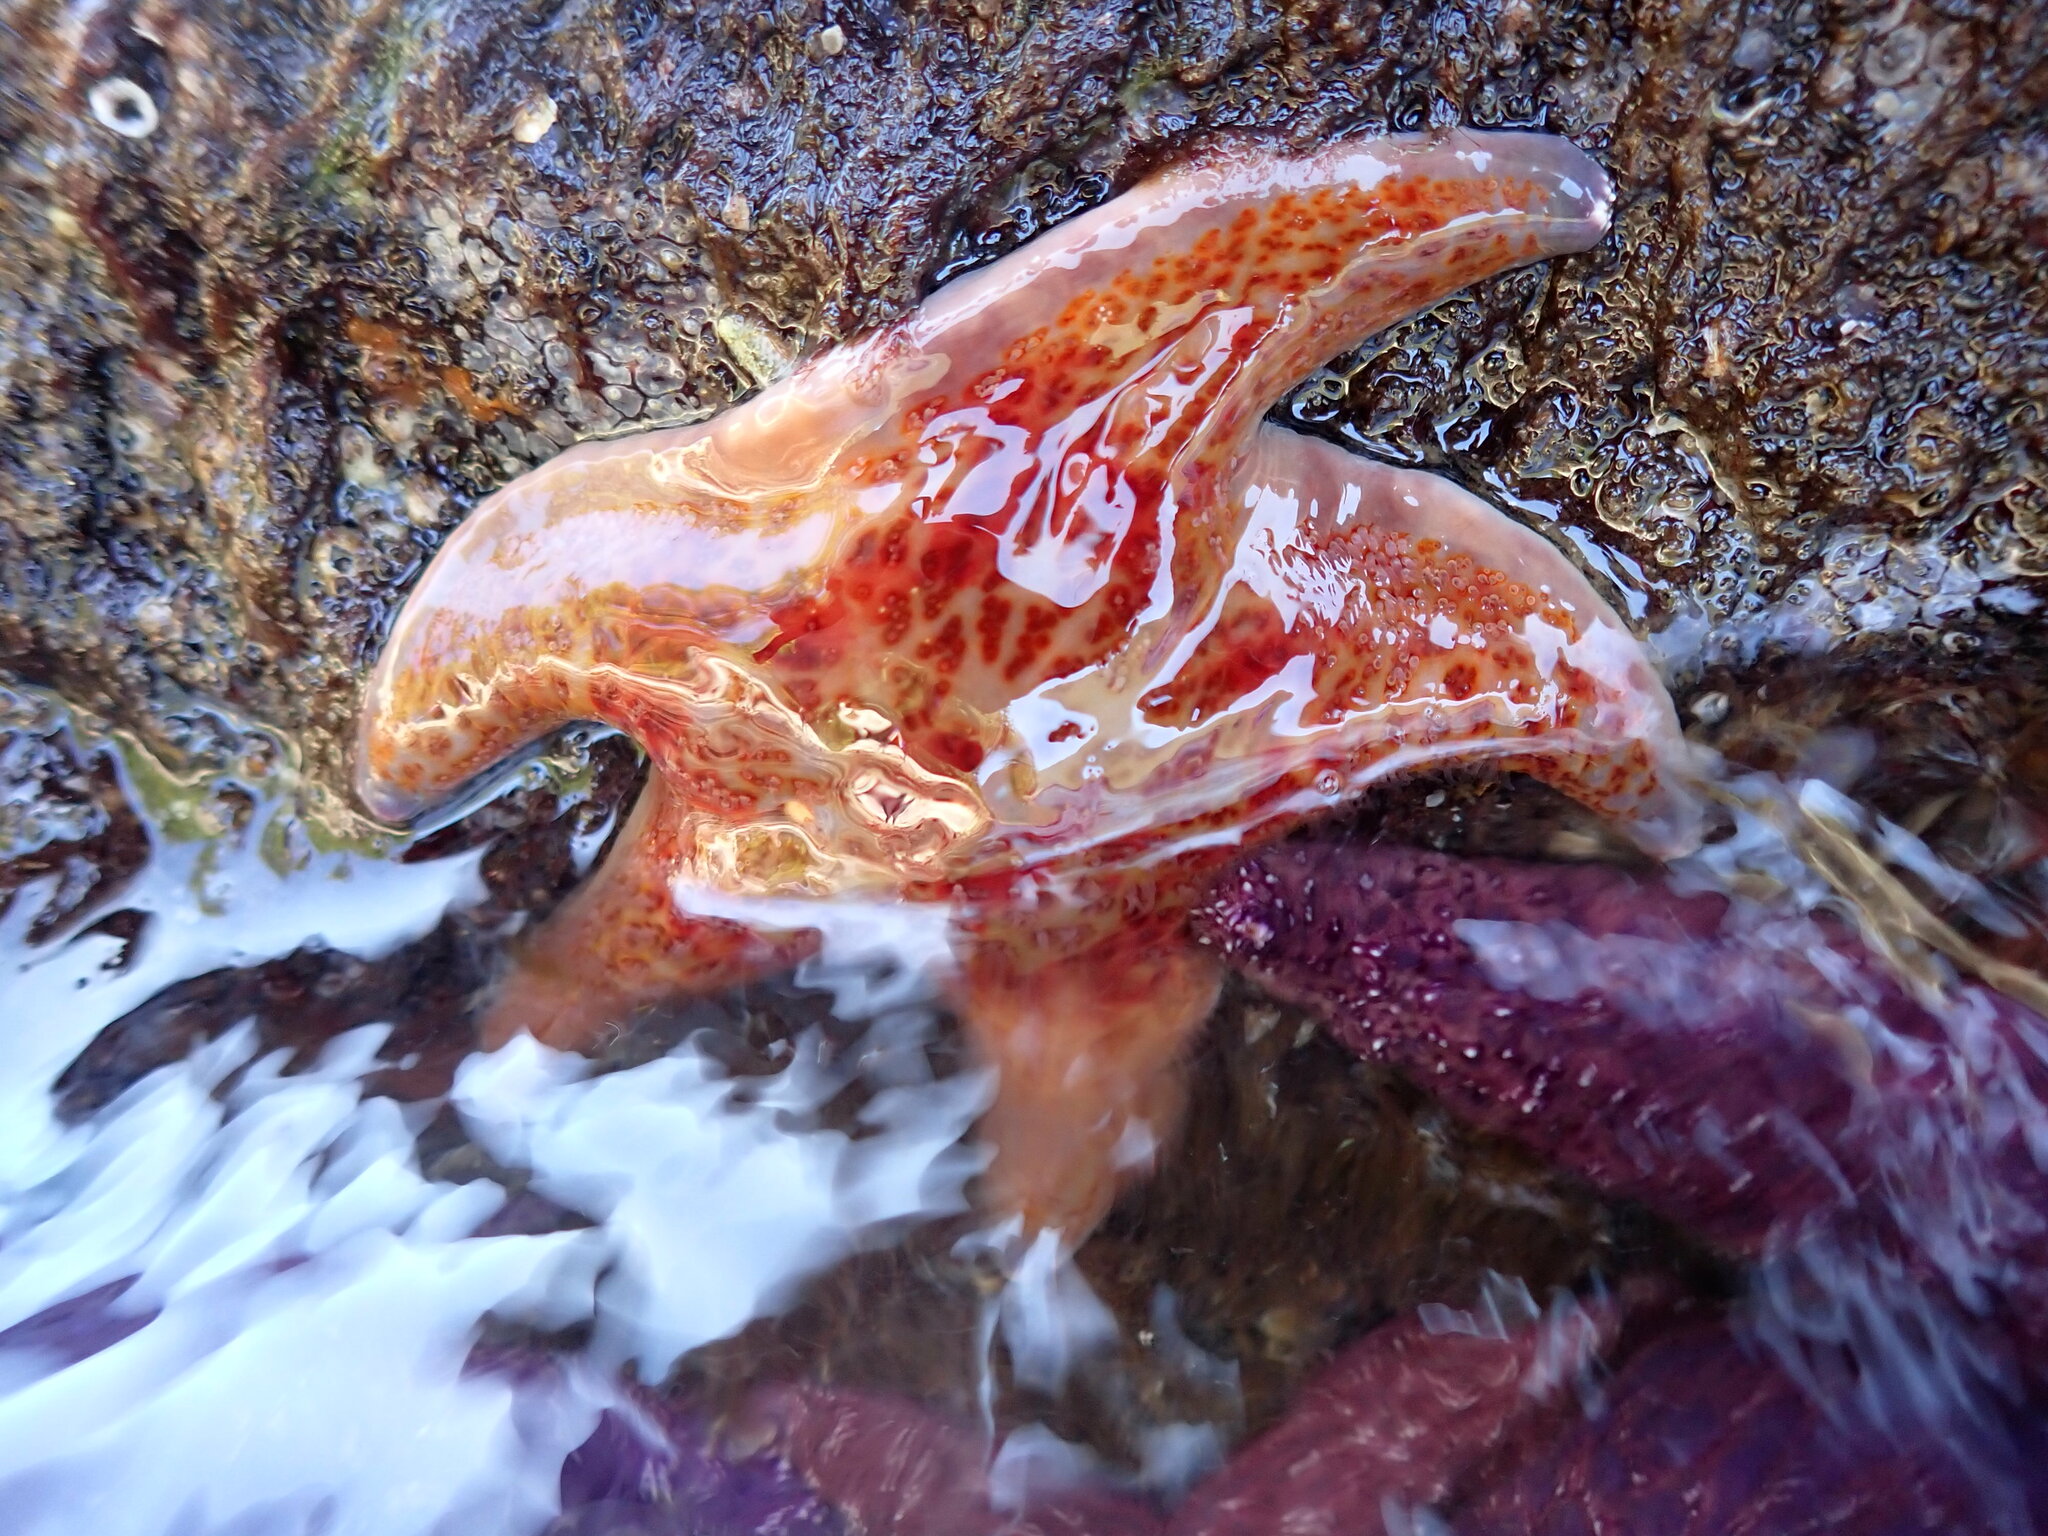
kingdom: Animalia
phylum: Echinodermata
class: Asteroidea
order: Valvatida
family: Asteropseidae
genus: Dermasterias
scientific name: Dermasterias imbricata
